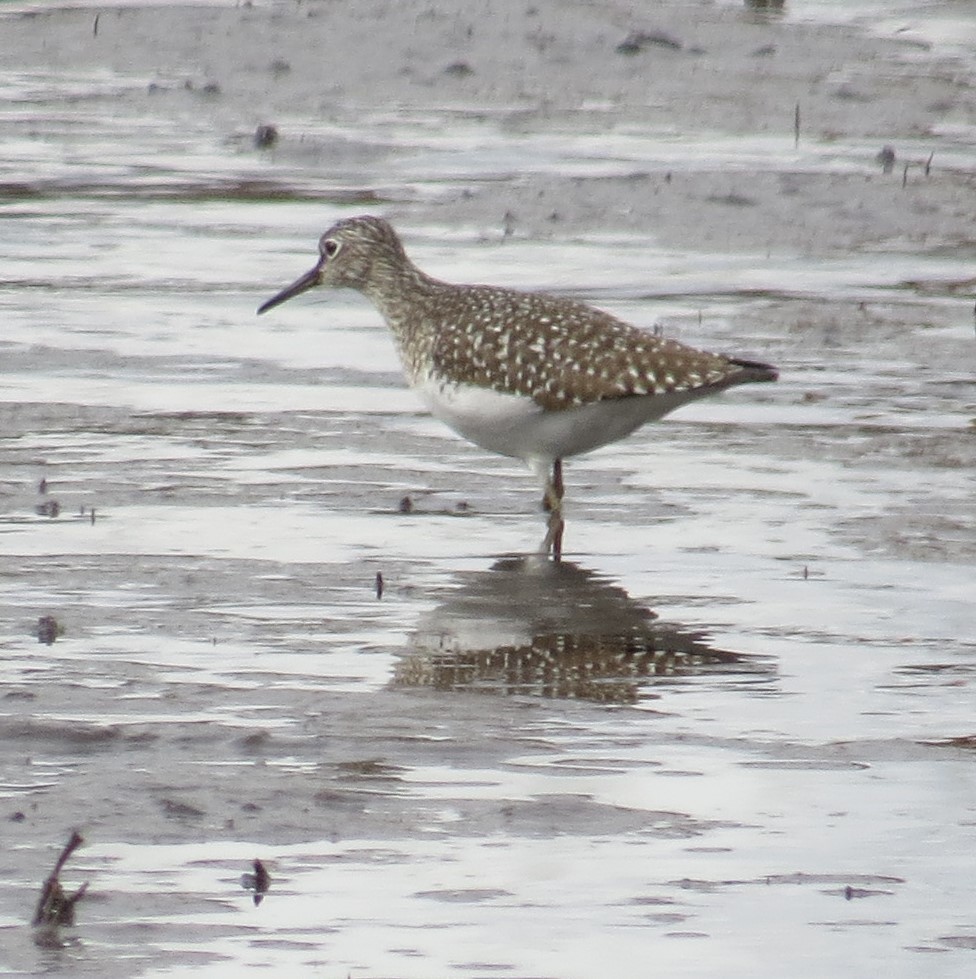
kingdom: Animalia
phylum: Chordata
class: Aves
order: Charadriiformes
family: Scolopacidae
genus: Tringa
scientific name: Tringa solitaria
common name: Solitary sandpiper
